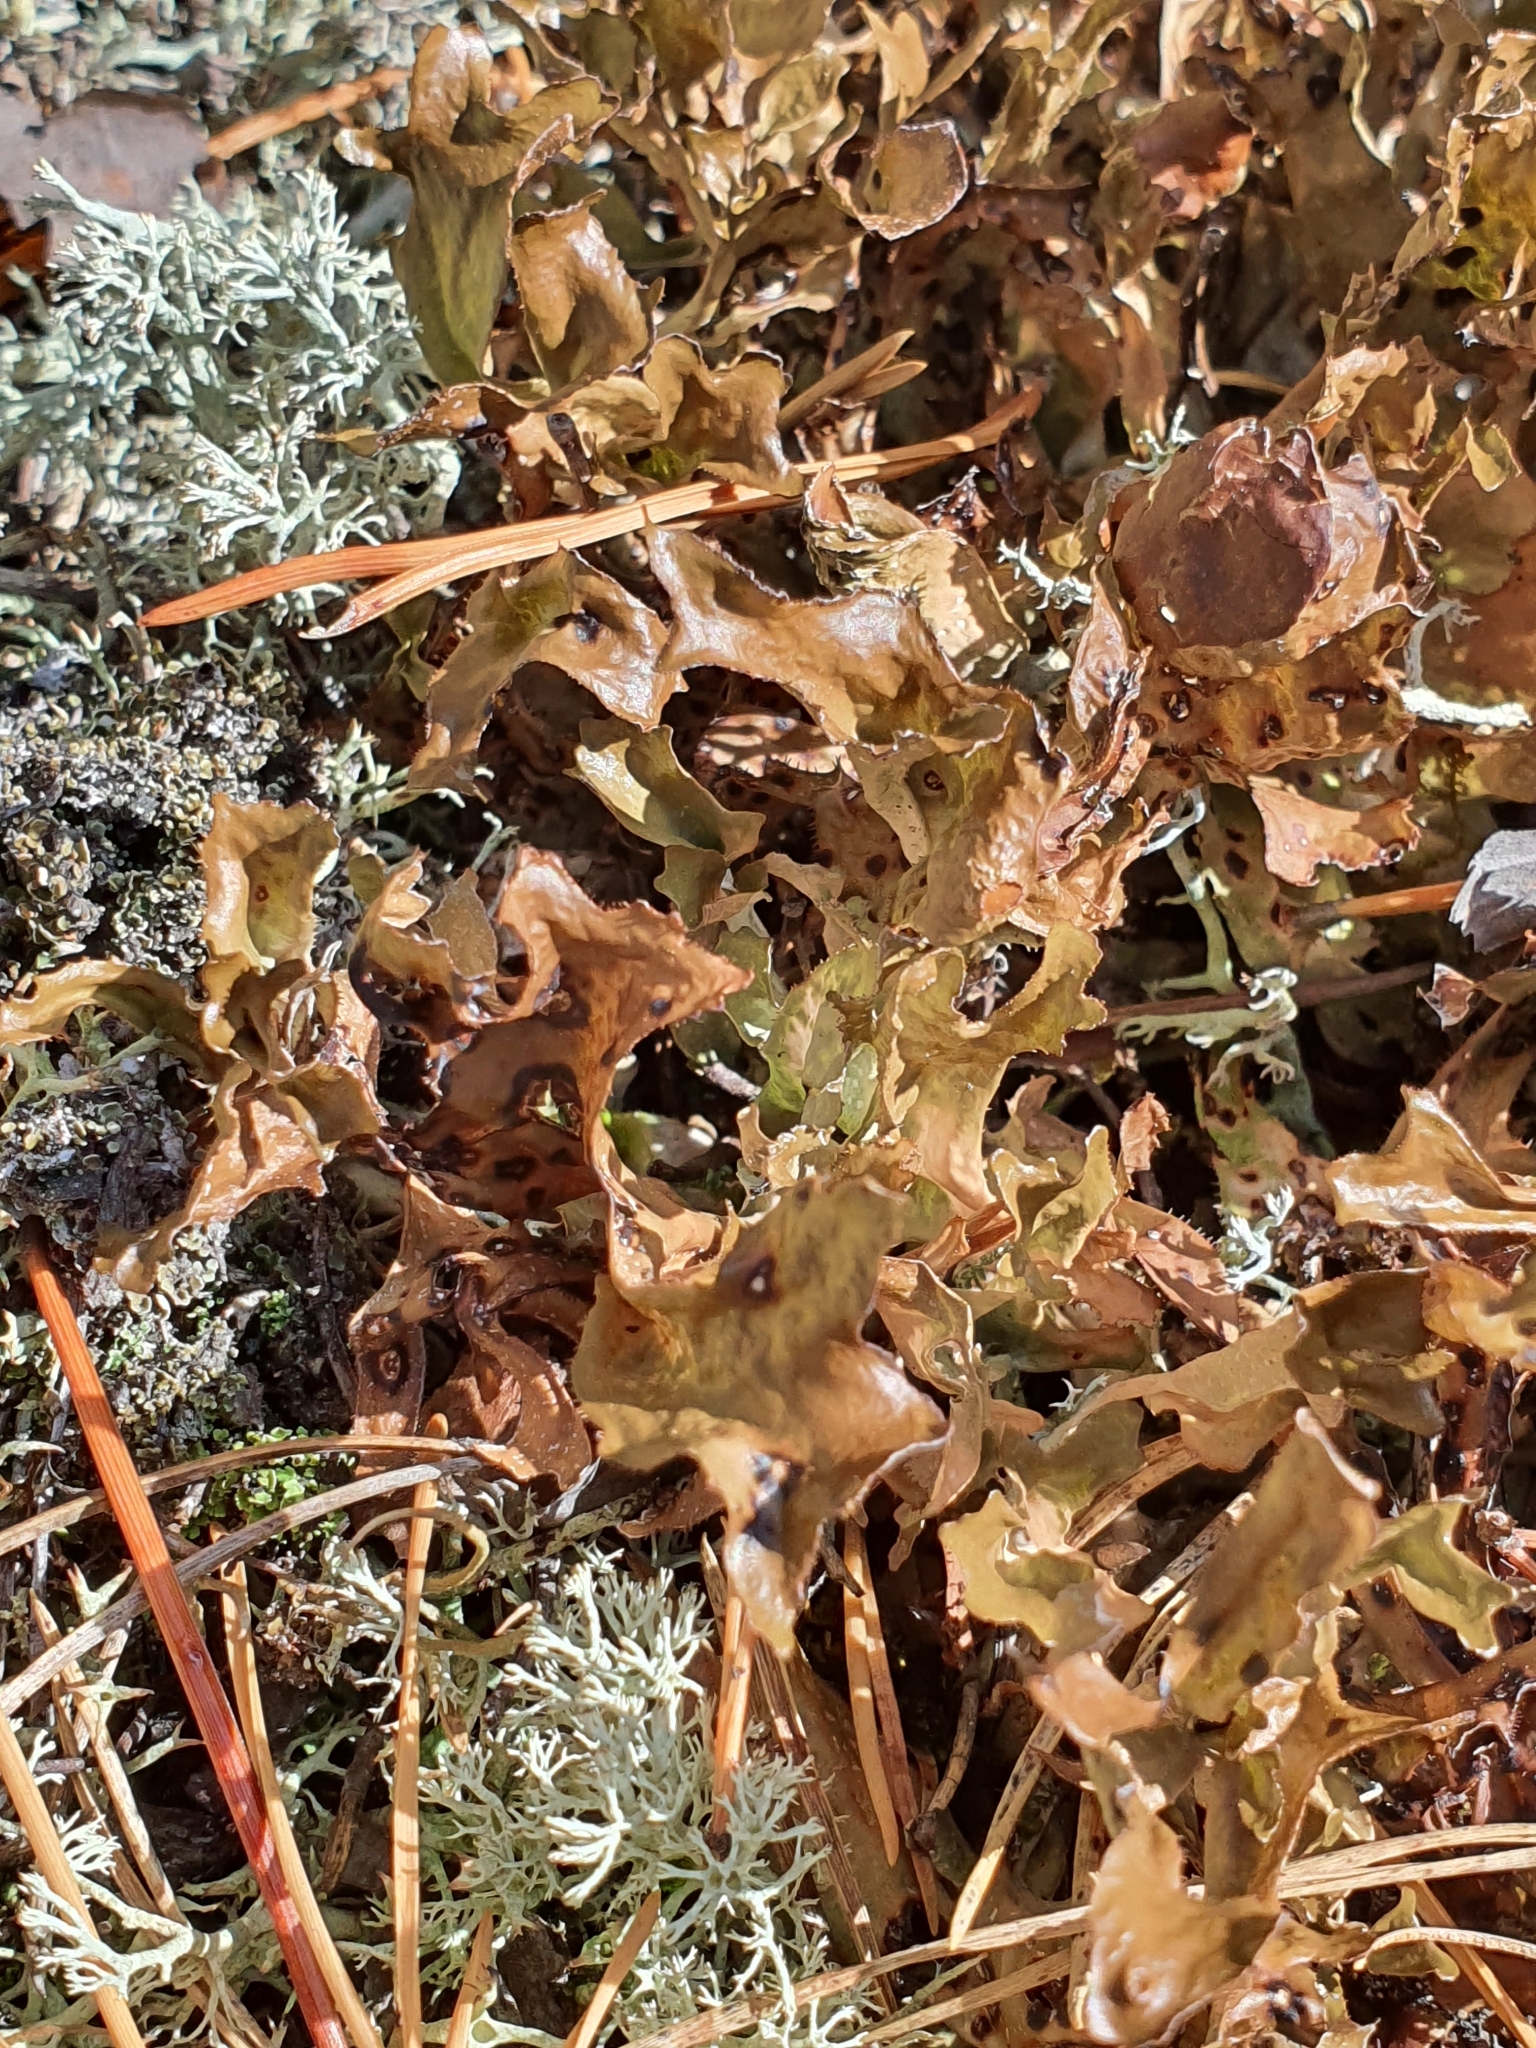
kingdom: Fungi
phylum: Ascomycota
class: Lecanoromycetes
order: Lecanorales
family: Parmeliaceae
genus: Cetraria
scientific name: Cetraria islandica
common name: Iceland lichen
